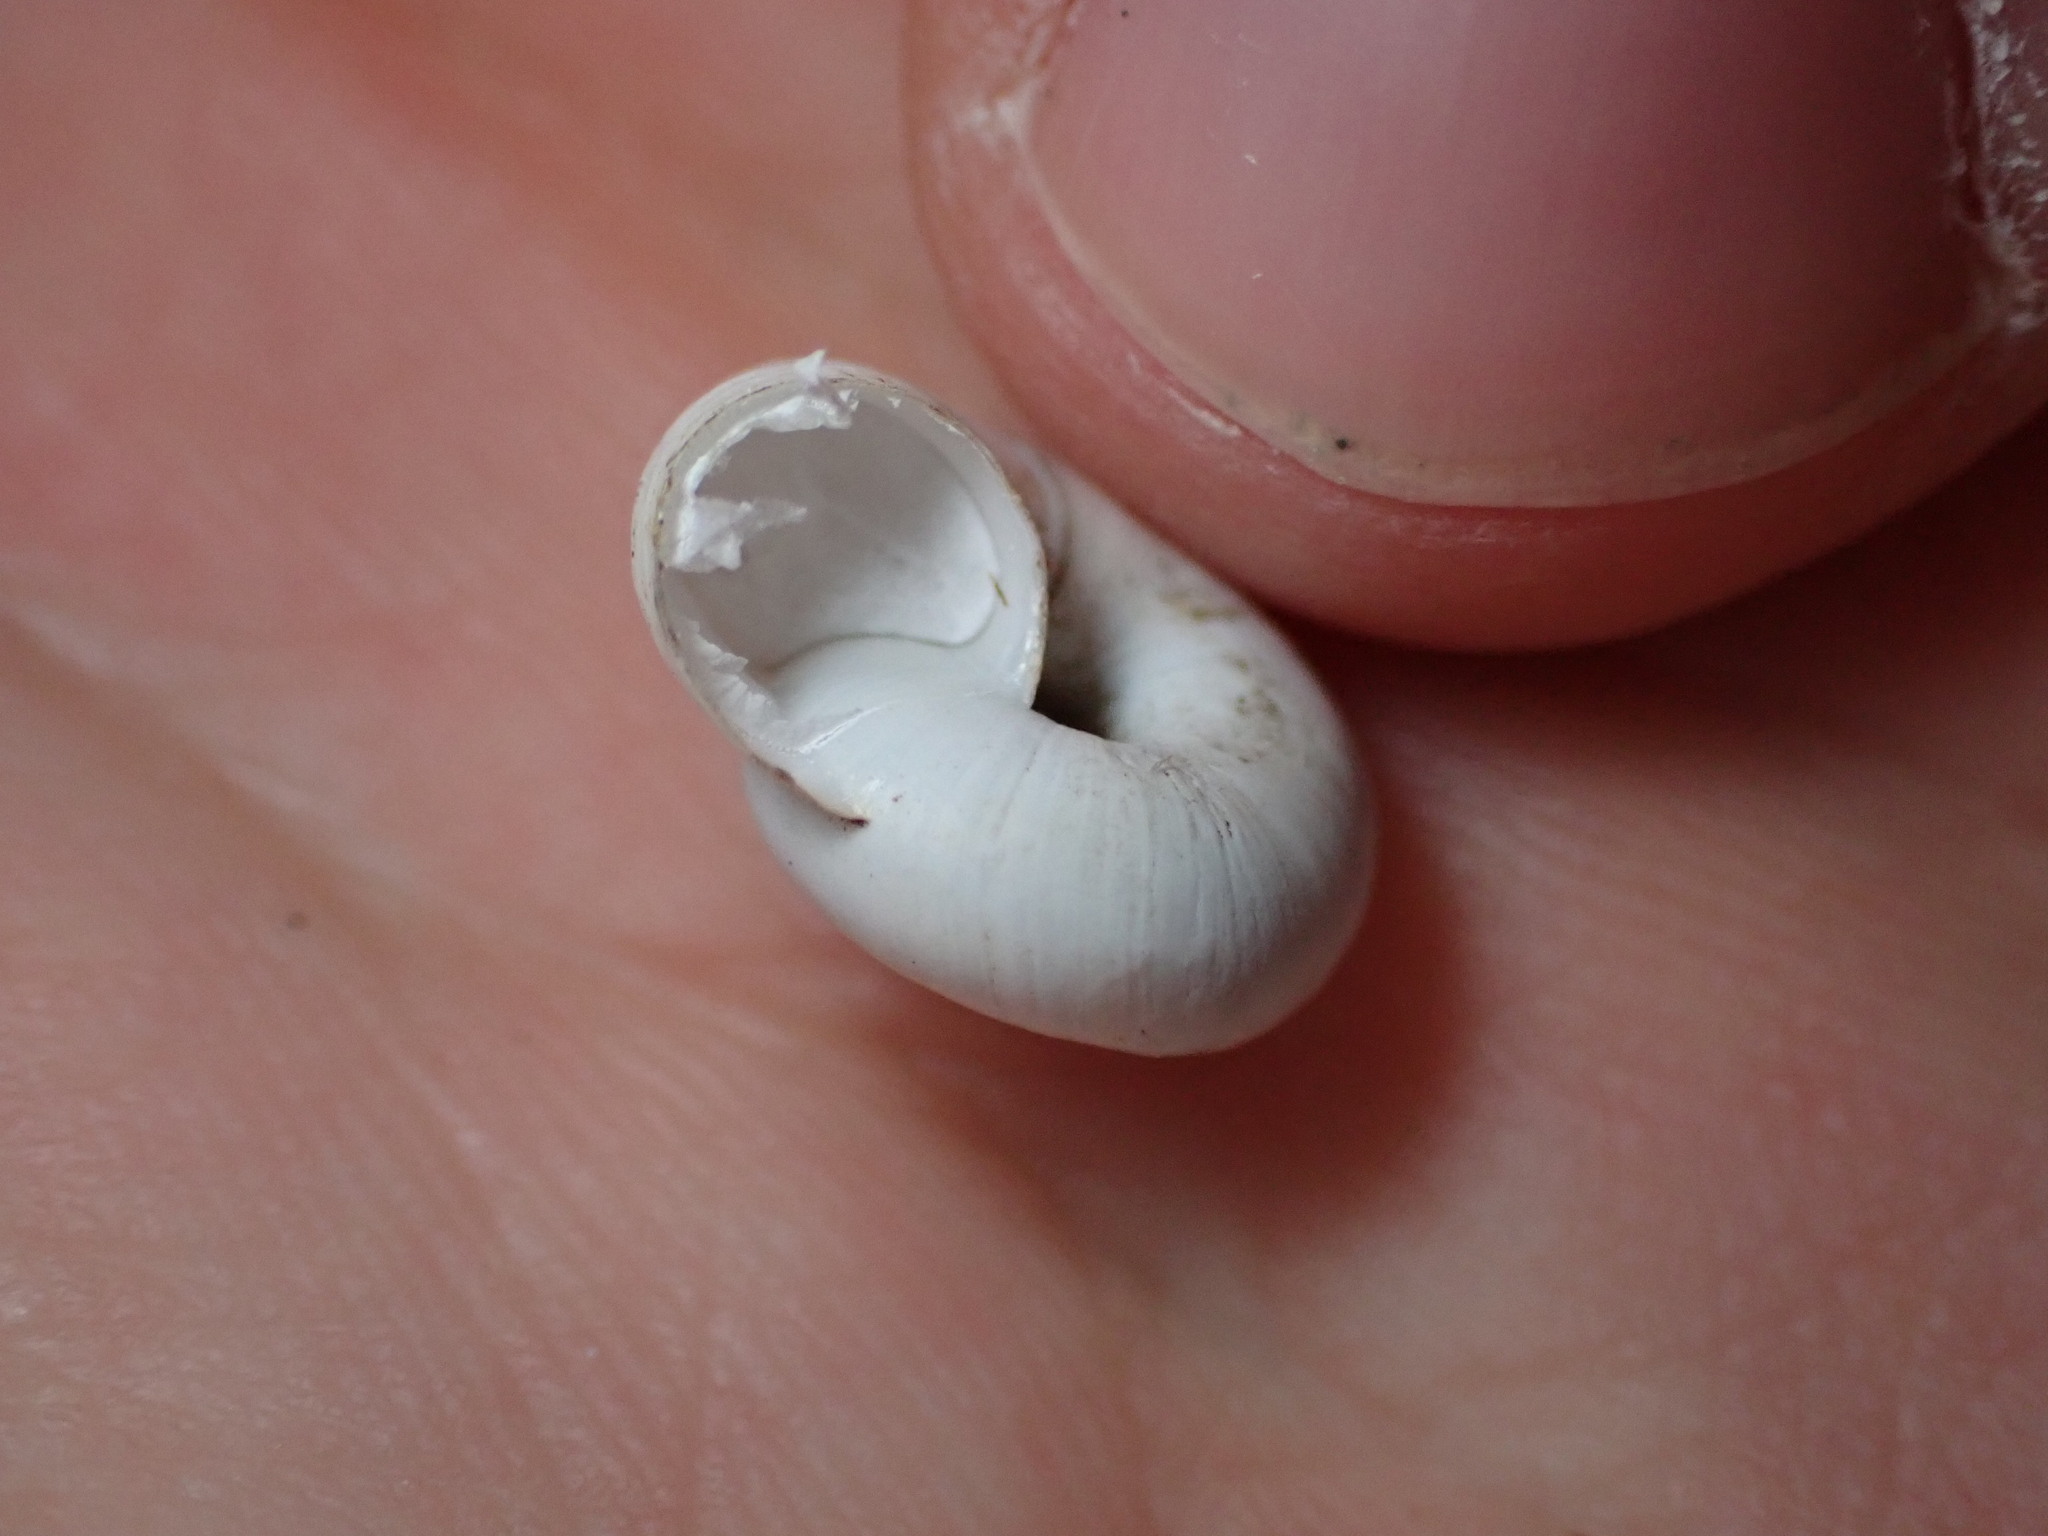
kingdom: Animalia
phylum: Mollusca
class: Gastropoda
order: Stylommatophora
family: Geomitridae
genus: Xeropicta
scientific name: Xeropicta derbentina
